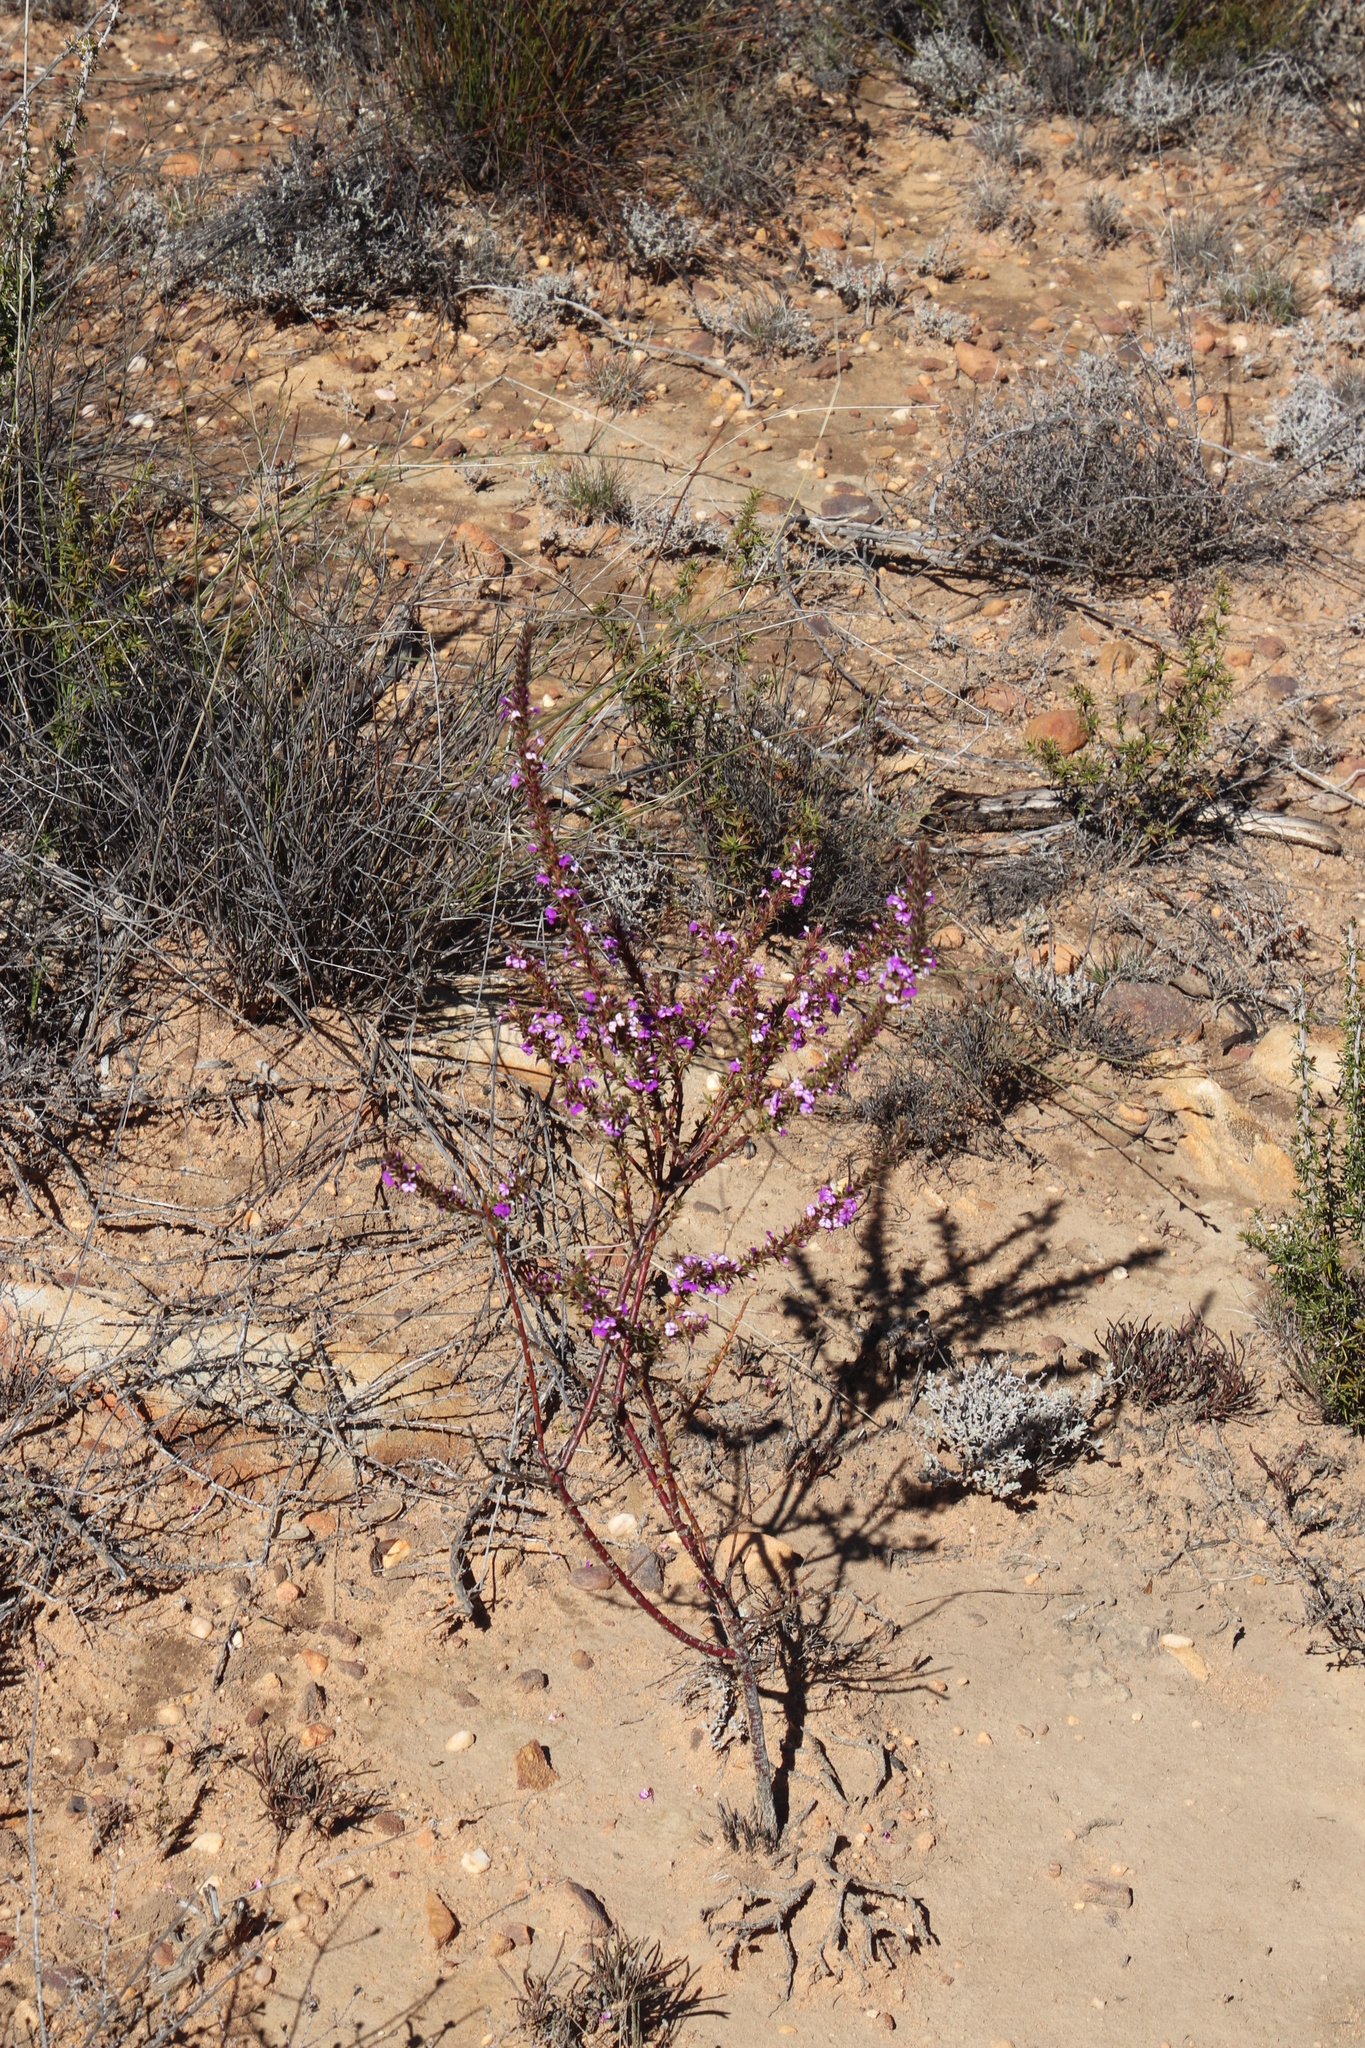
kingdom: Plantae
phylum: Tracheophyta
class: Magnoliopsida
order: Fabales
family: Polygalaceae
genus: Muraltia
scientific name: Muraltia heisteria
